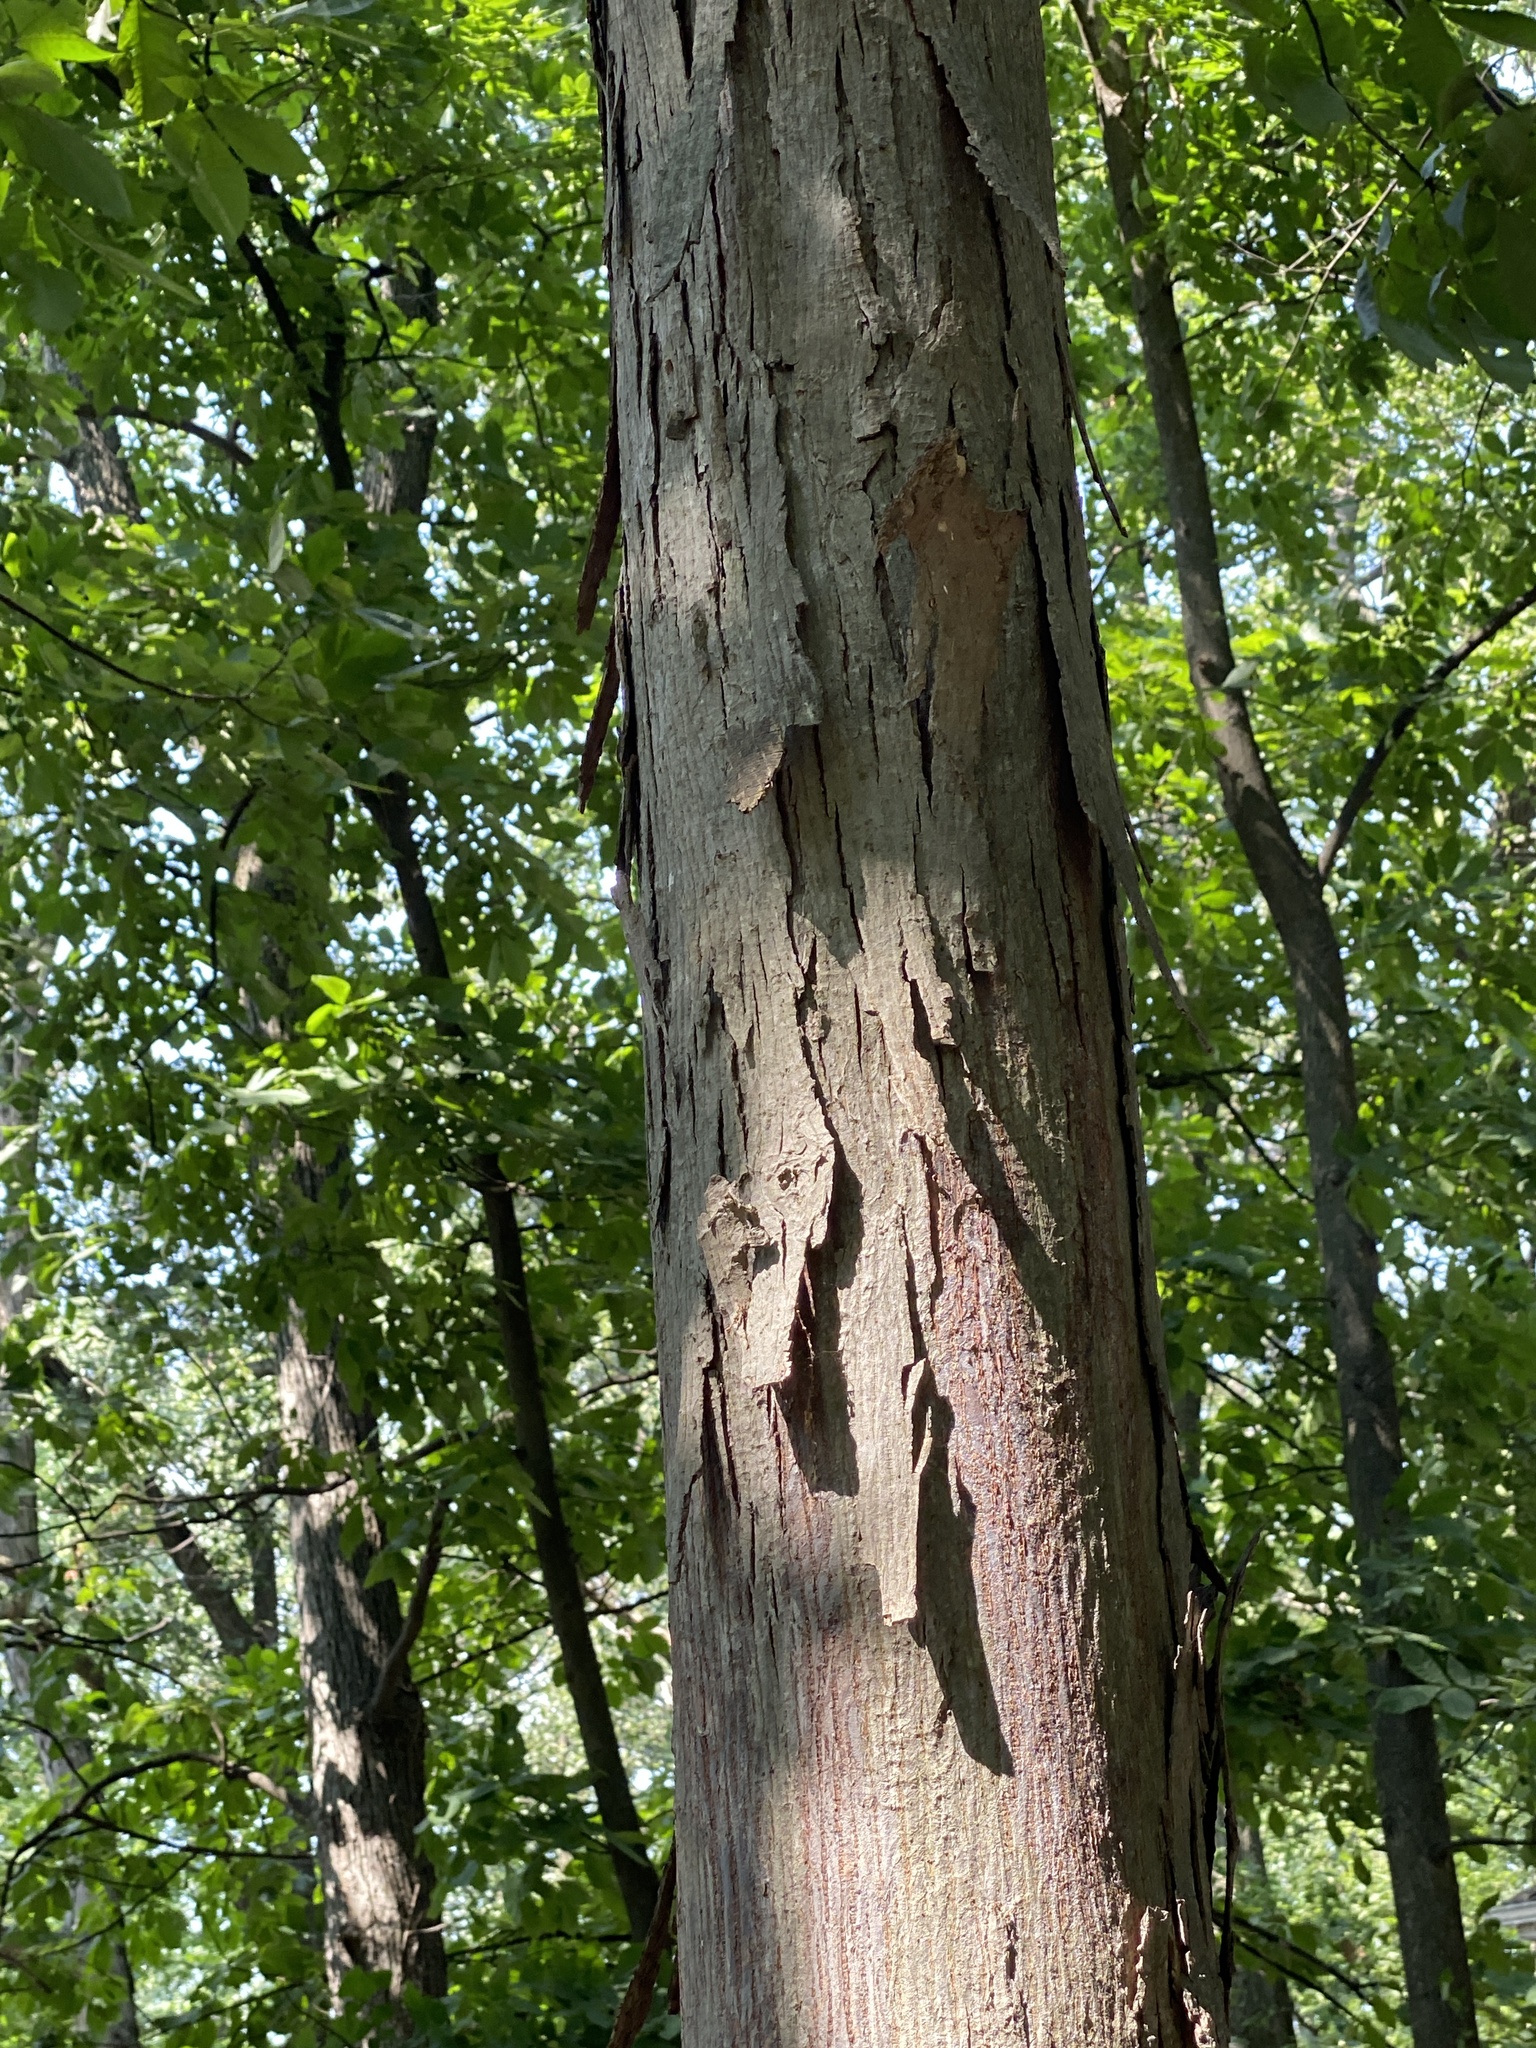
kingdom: Plantae
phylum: Tracheophyta
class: Magnoliopsida
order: Fagales
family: Juglandaceae
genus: Carya
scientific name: Carya ovata
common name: Shagbark hickory
